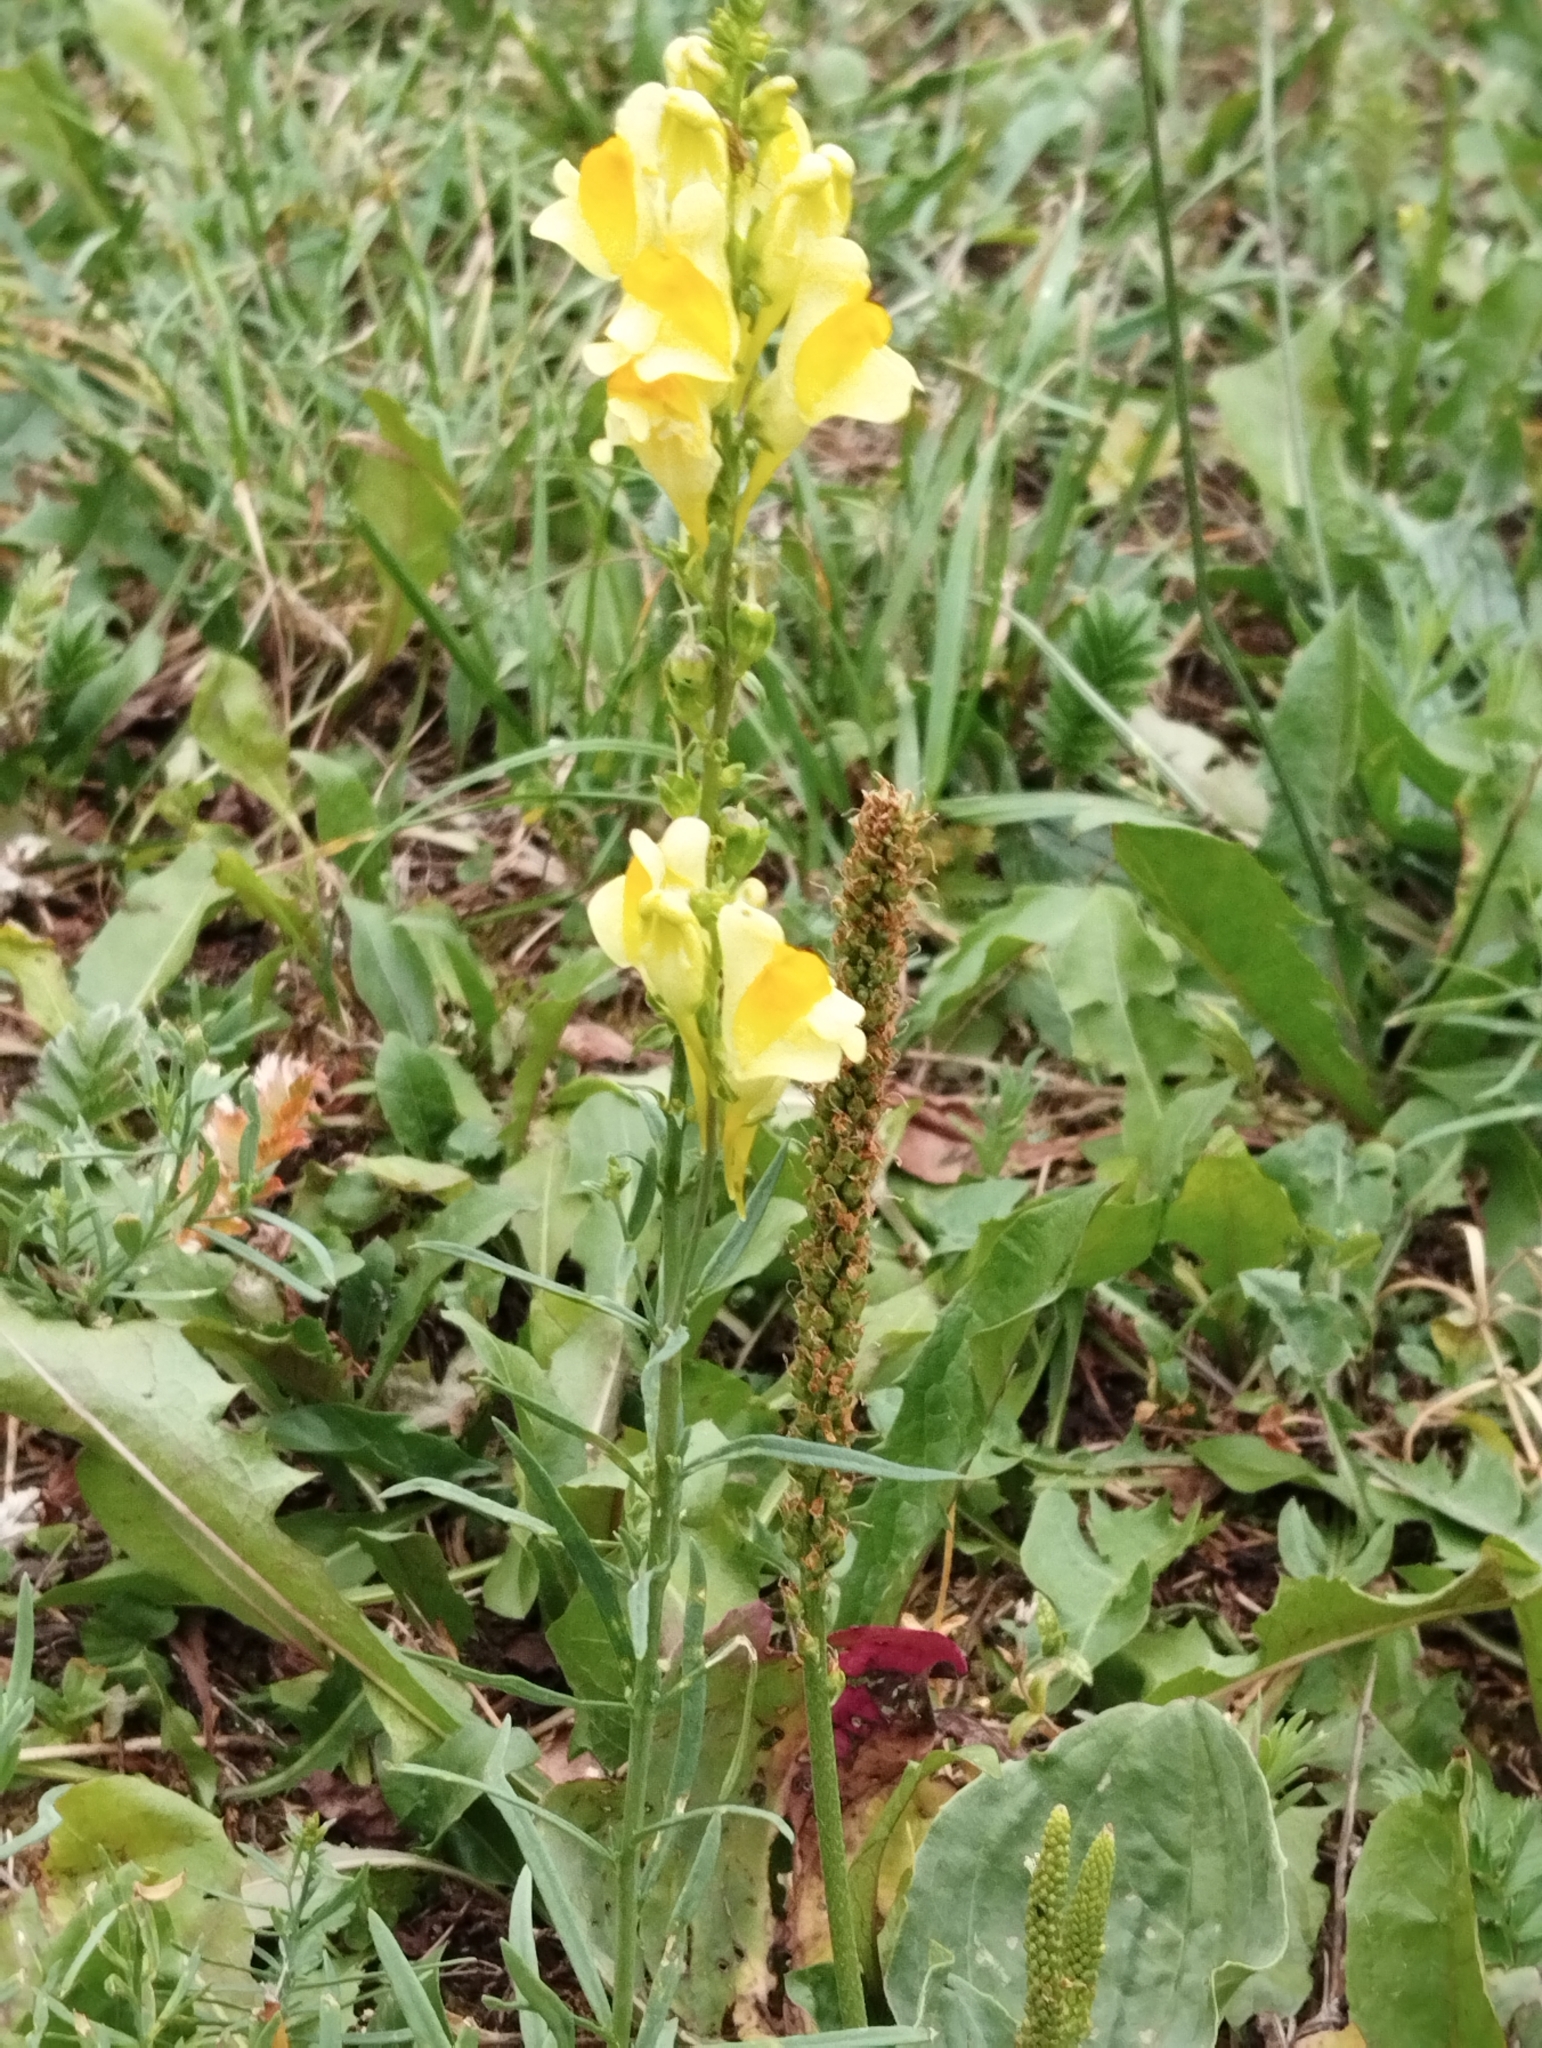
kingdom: Plantae
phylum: Tracheophyta
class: Magnoliopsida
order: Lamiales
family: Plantaginaceae
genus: Linaria
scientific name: Linaria vulgaris
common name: Butter and eggs
